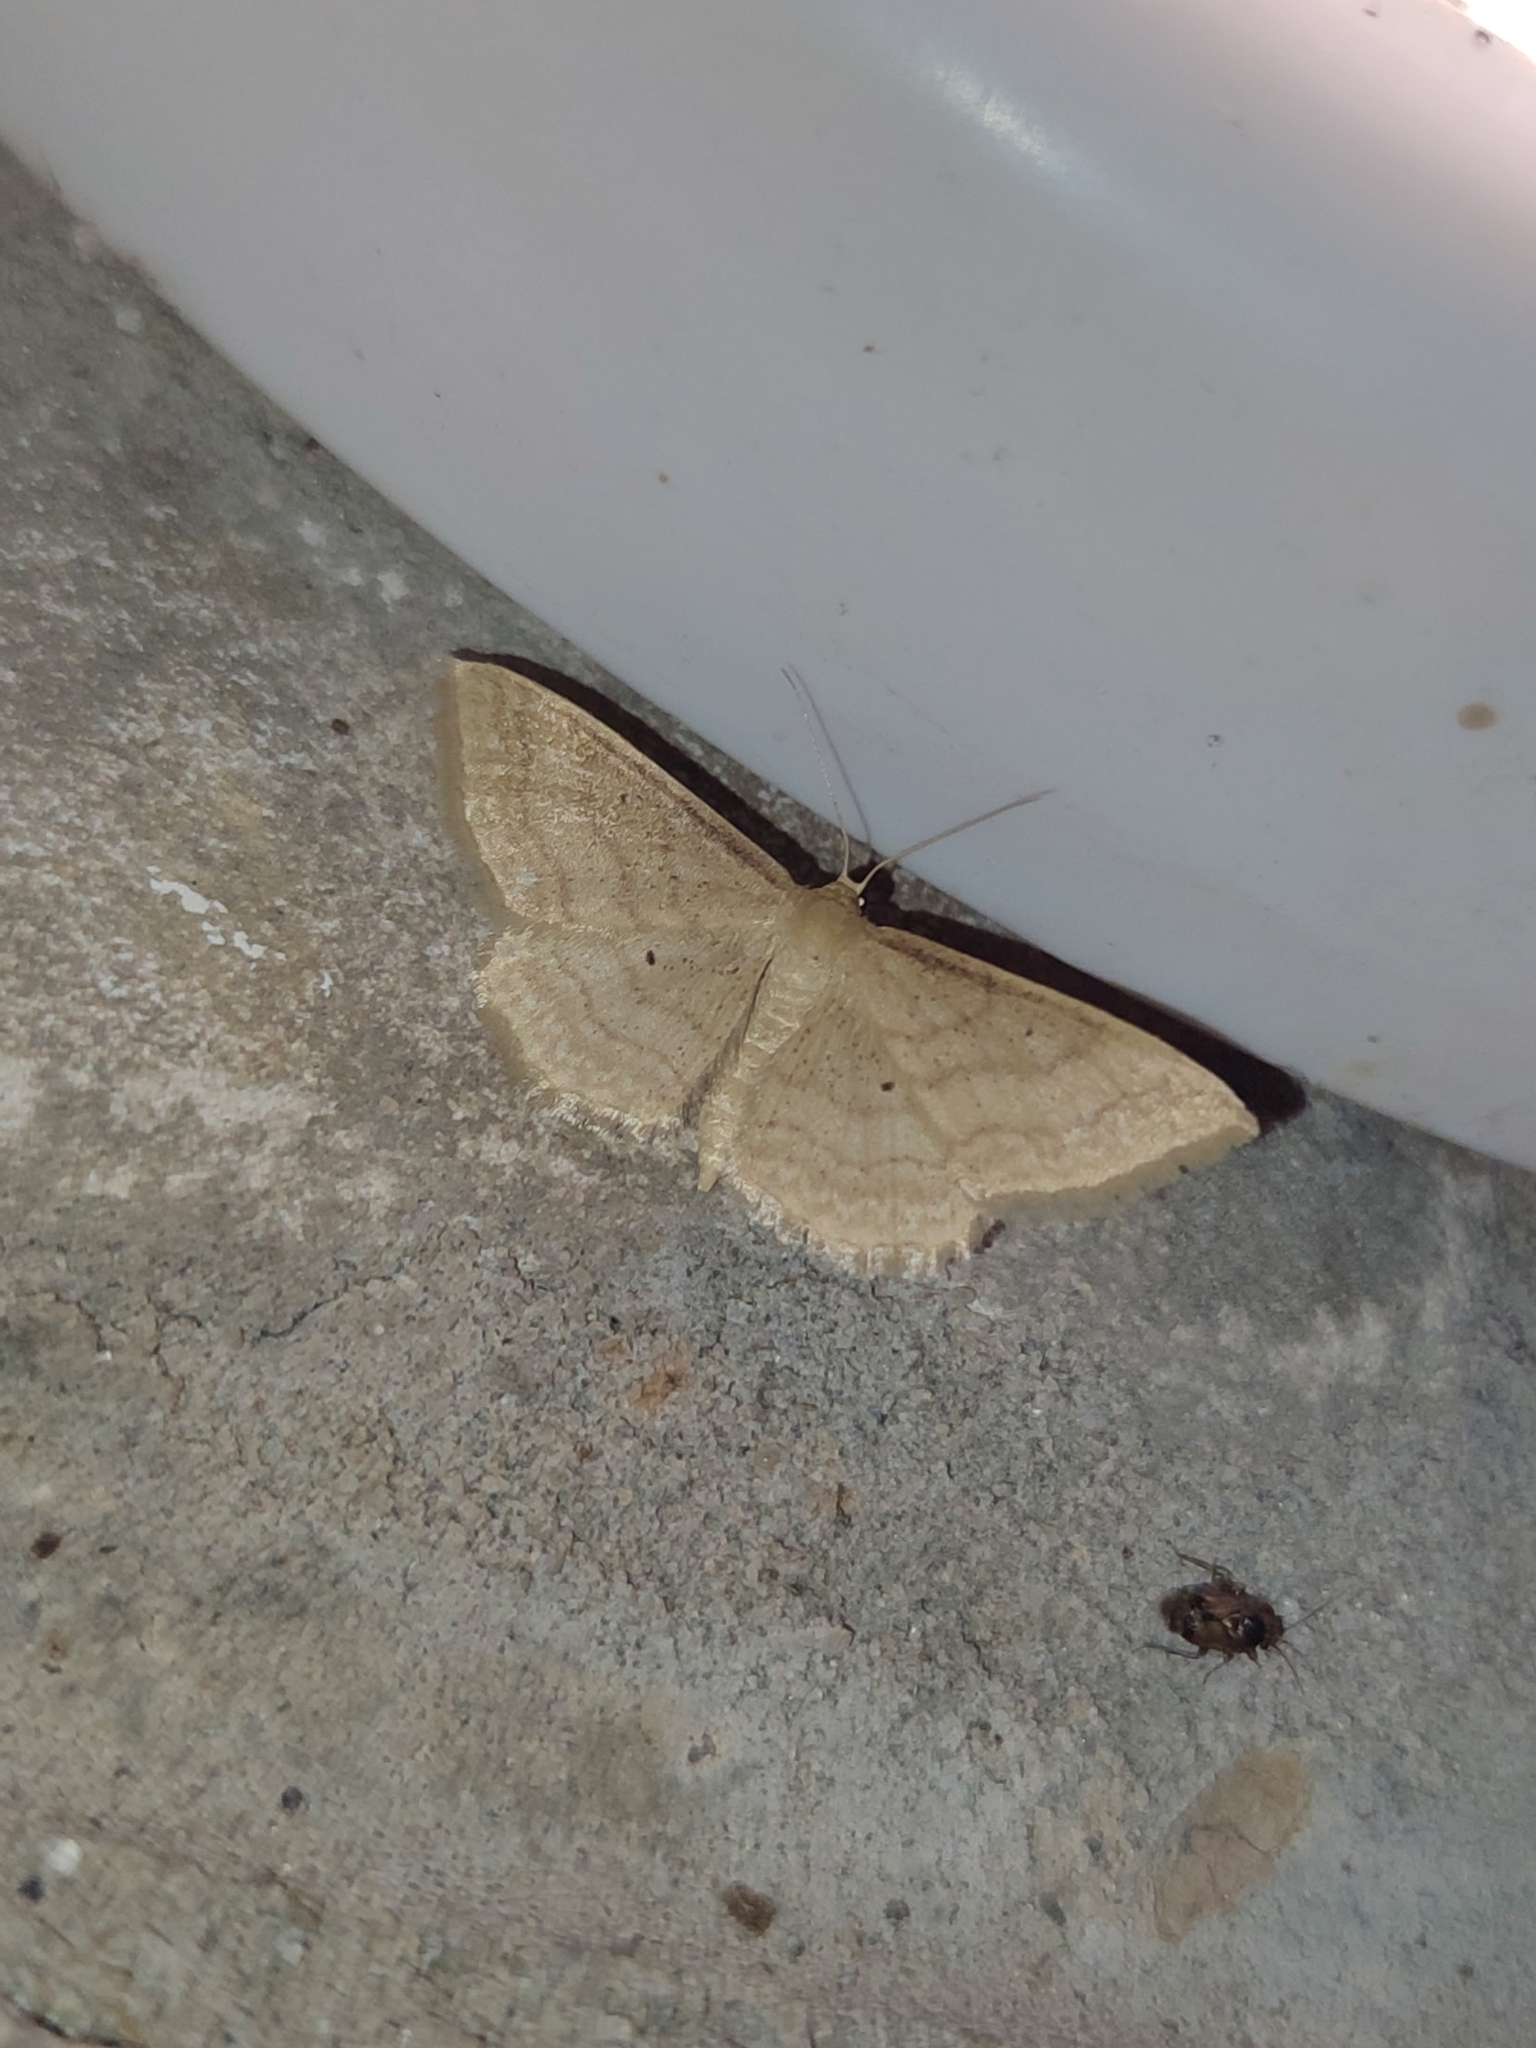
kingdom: Animalia
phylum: Arthropoda
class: Insecta
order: Lepidoptera
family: Geometridae
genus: Idaea
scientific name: Idaea rufaria
